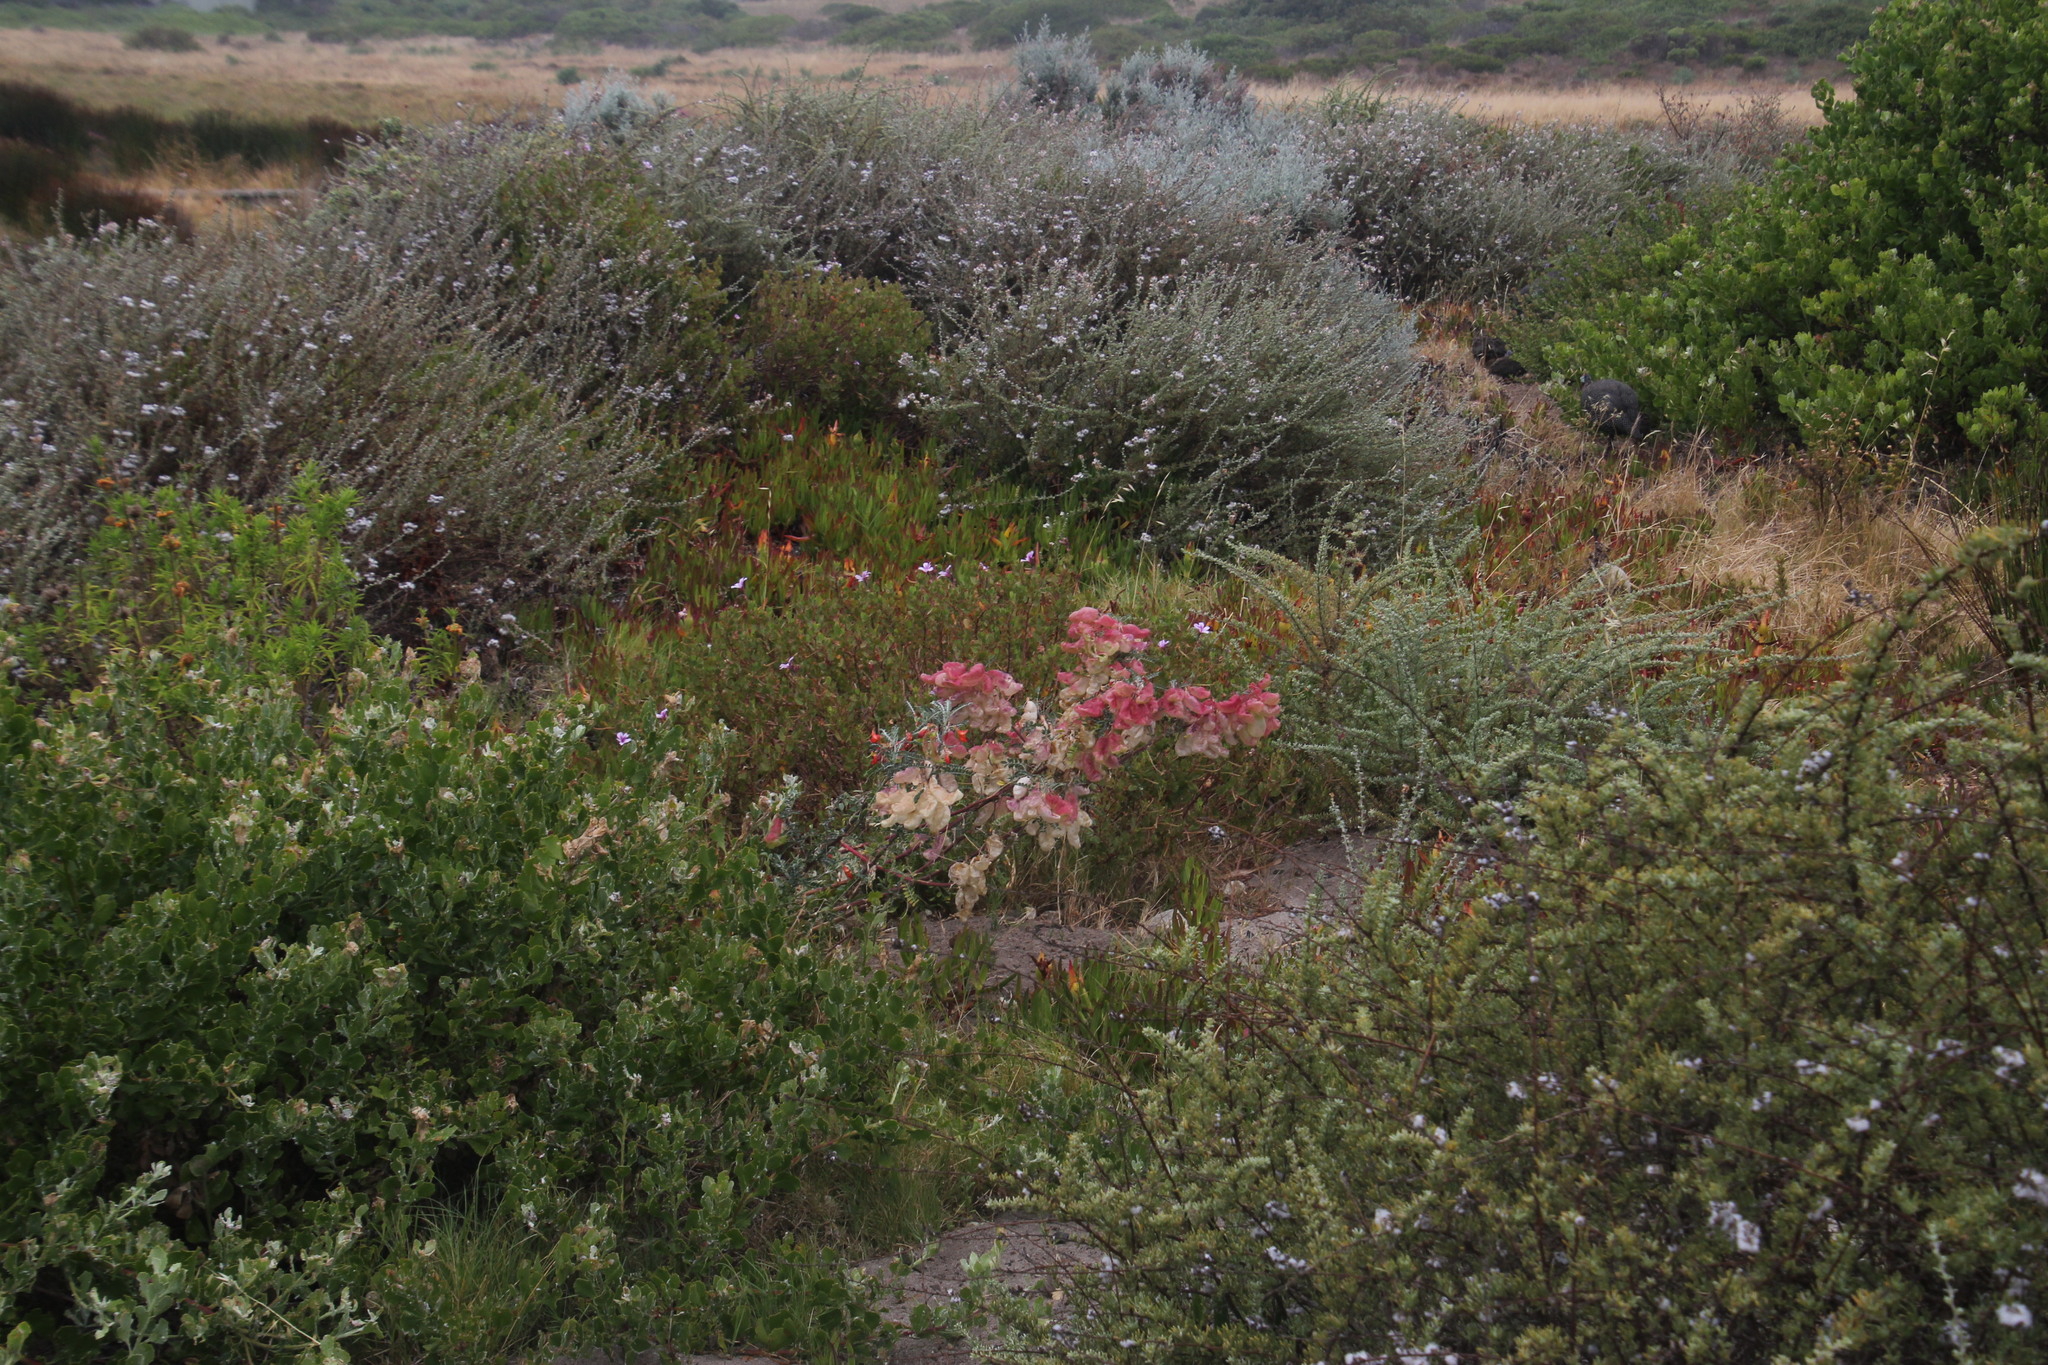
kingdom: Plantae
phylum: Tracheophyta
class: Magnoliopsida
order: Fabales
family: Fabaceae
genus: Lessertia
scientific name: Lessertia frutescens
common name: Balloon-pea
